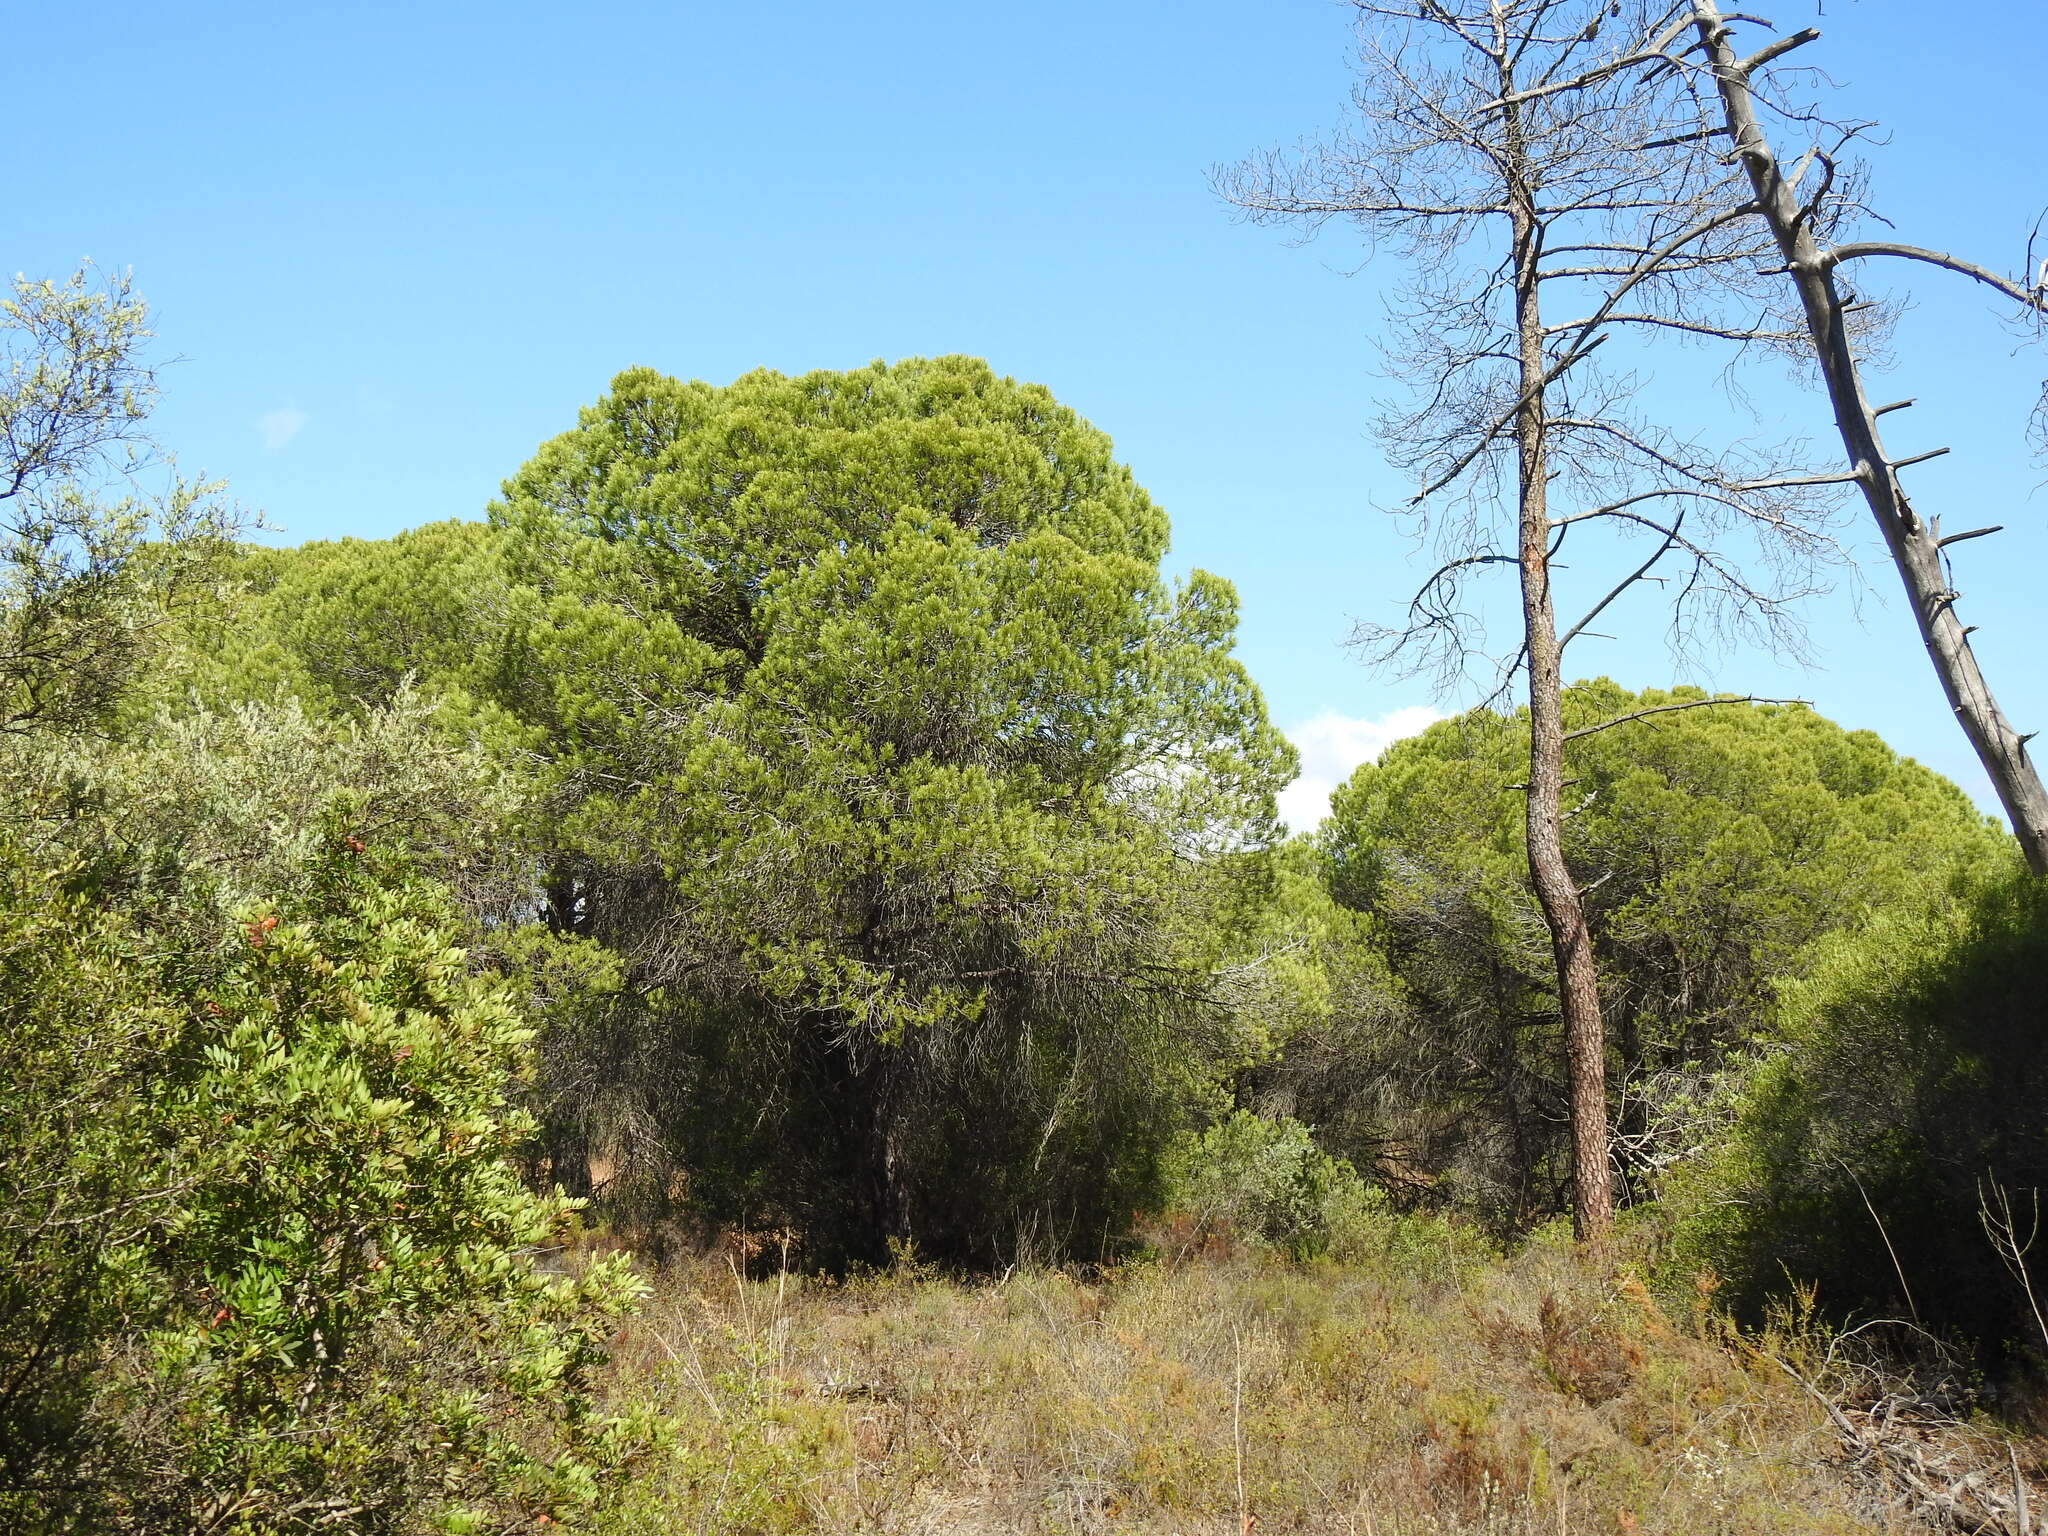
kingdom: Plantae
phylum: Tracheophyta
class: Pinopsida
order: Pinales
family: Pinaceae
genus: Pinus
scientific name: Pinus pinea
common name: Italian stone pine
